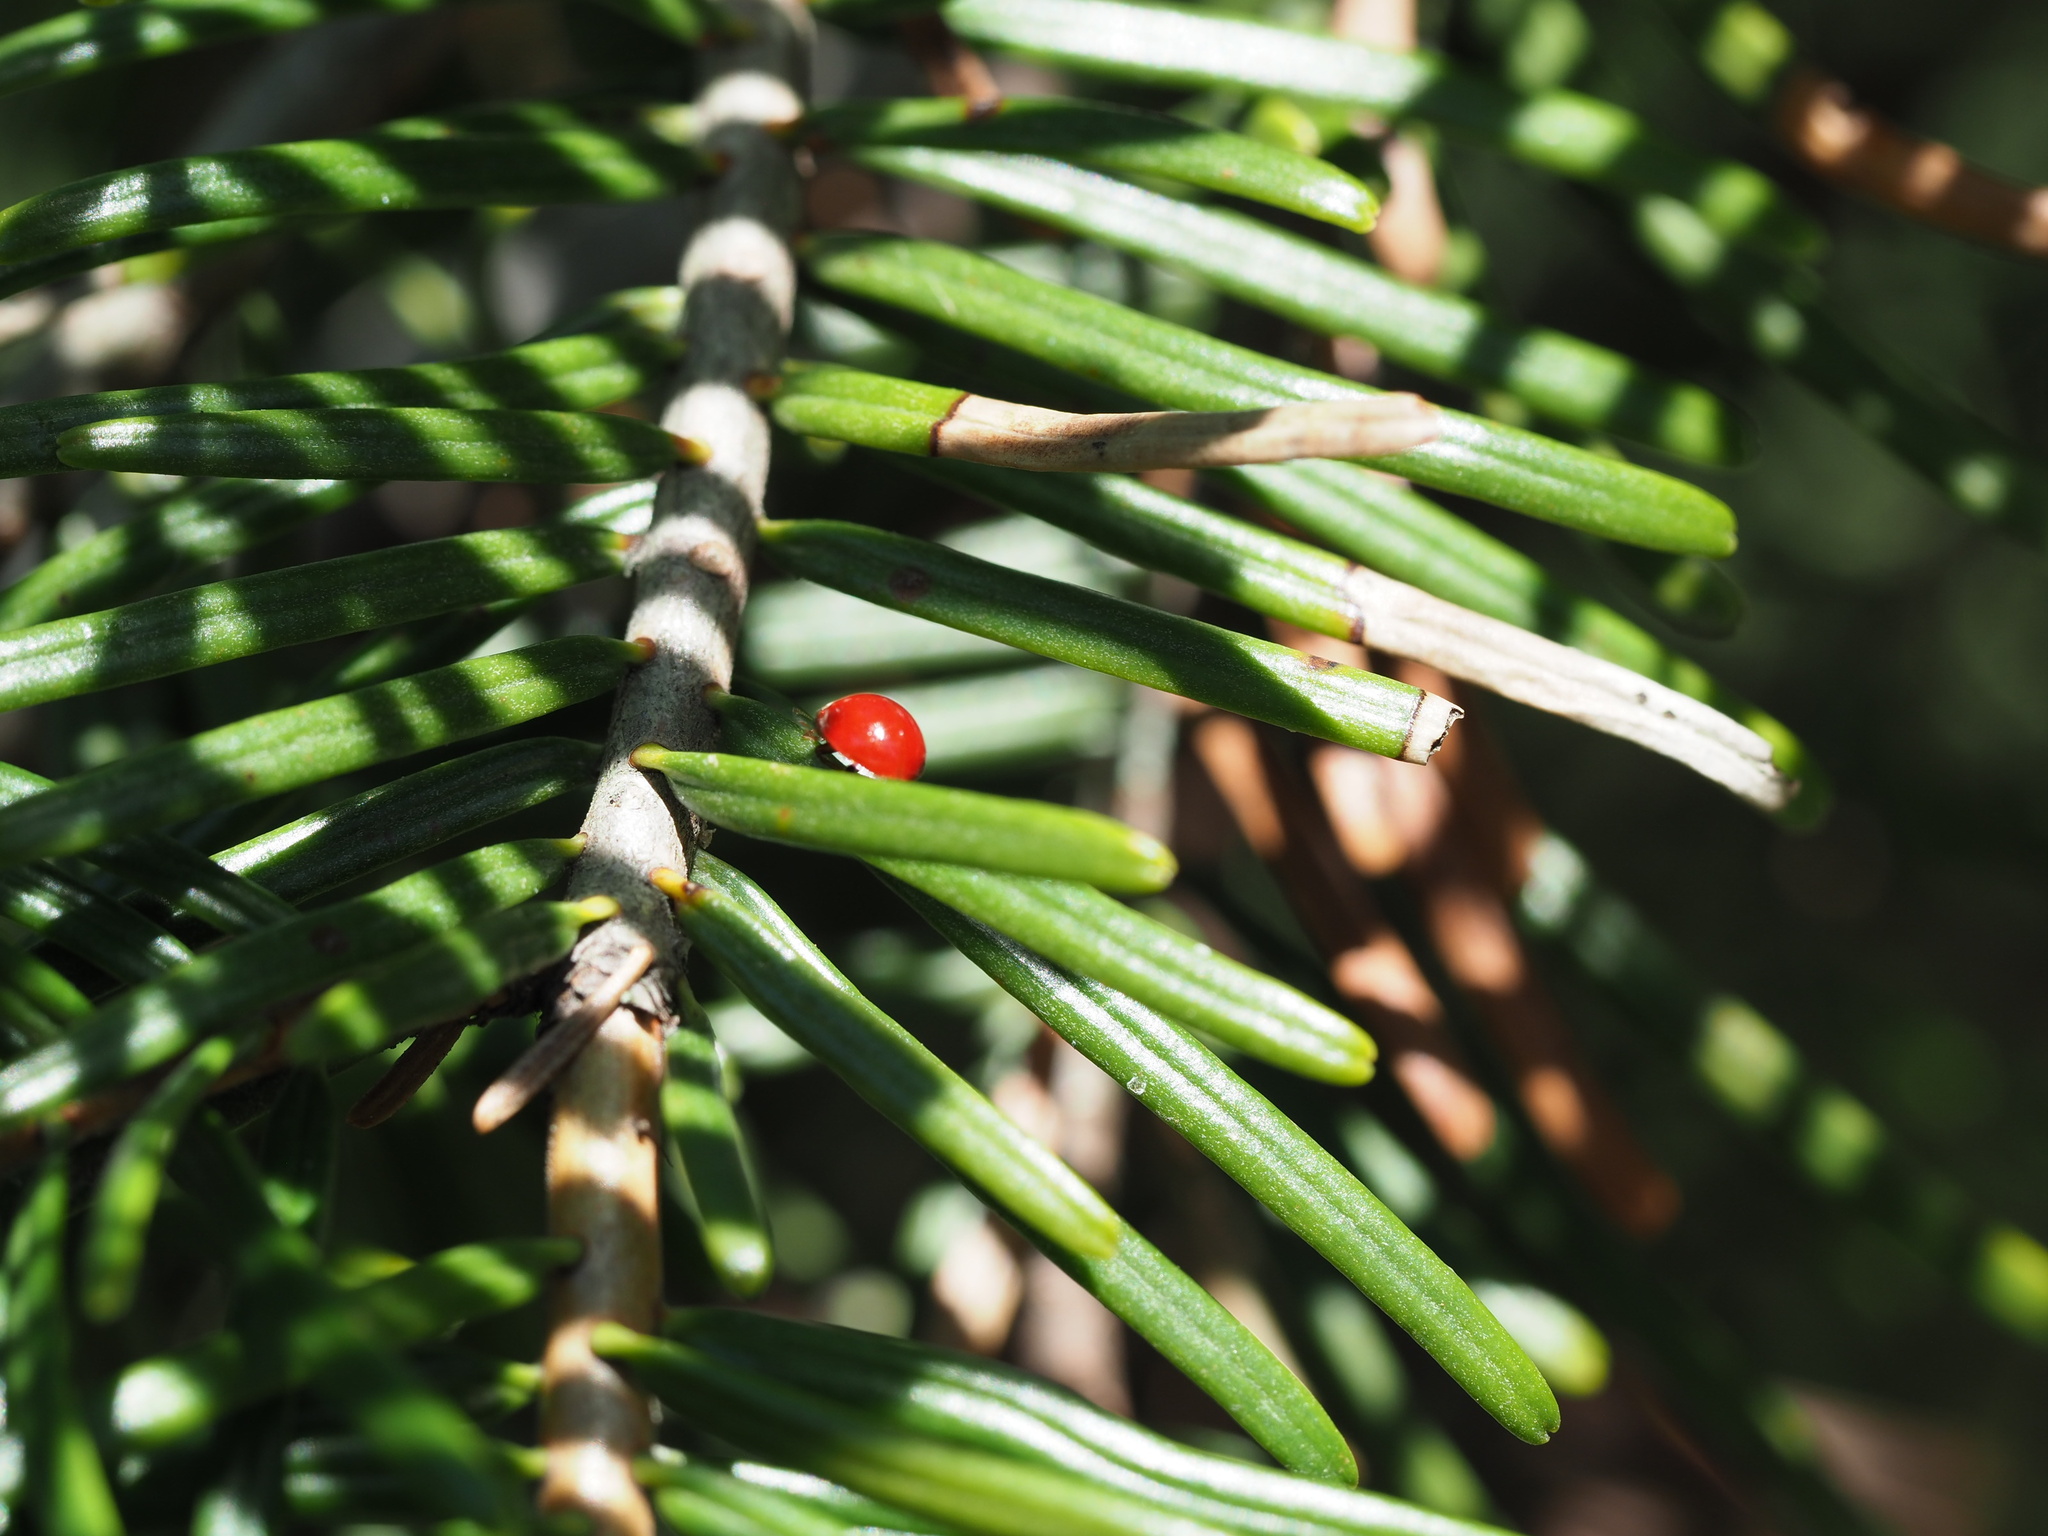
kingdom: Animalia
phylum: Arthropoda
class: Insecta
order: Coleoptera
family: Coccinellidae
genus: Cycloneda
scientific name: Cycloneda polita
